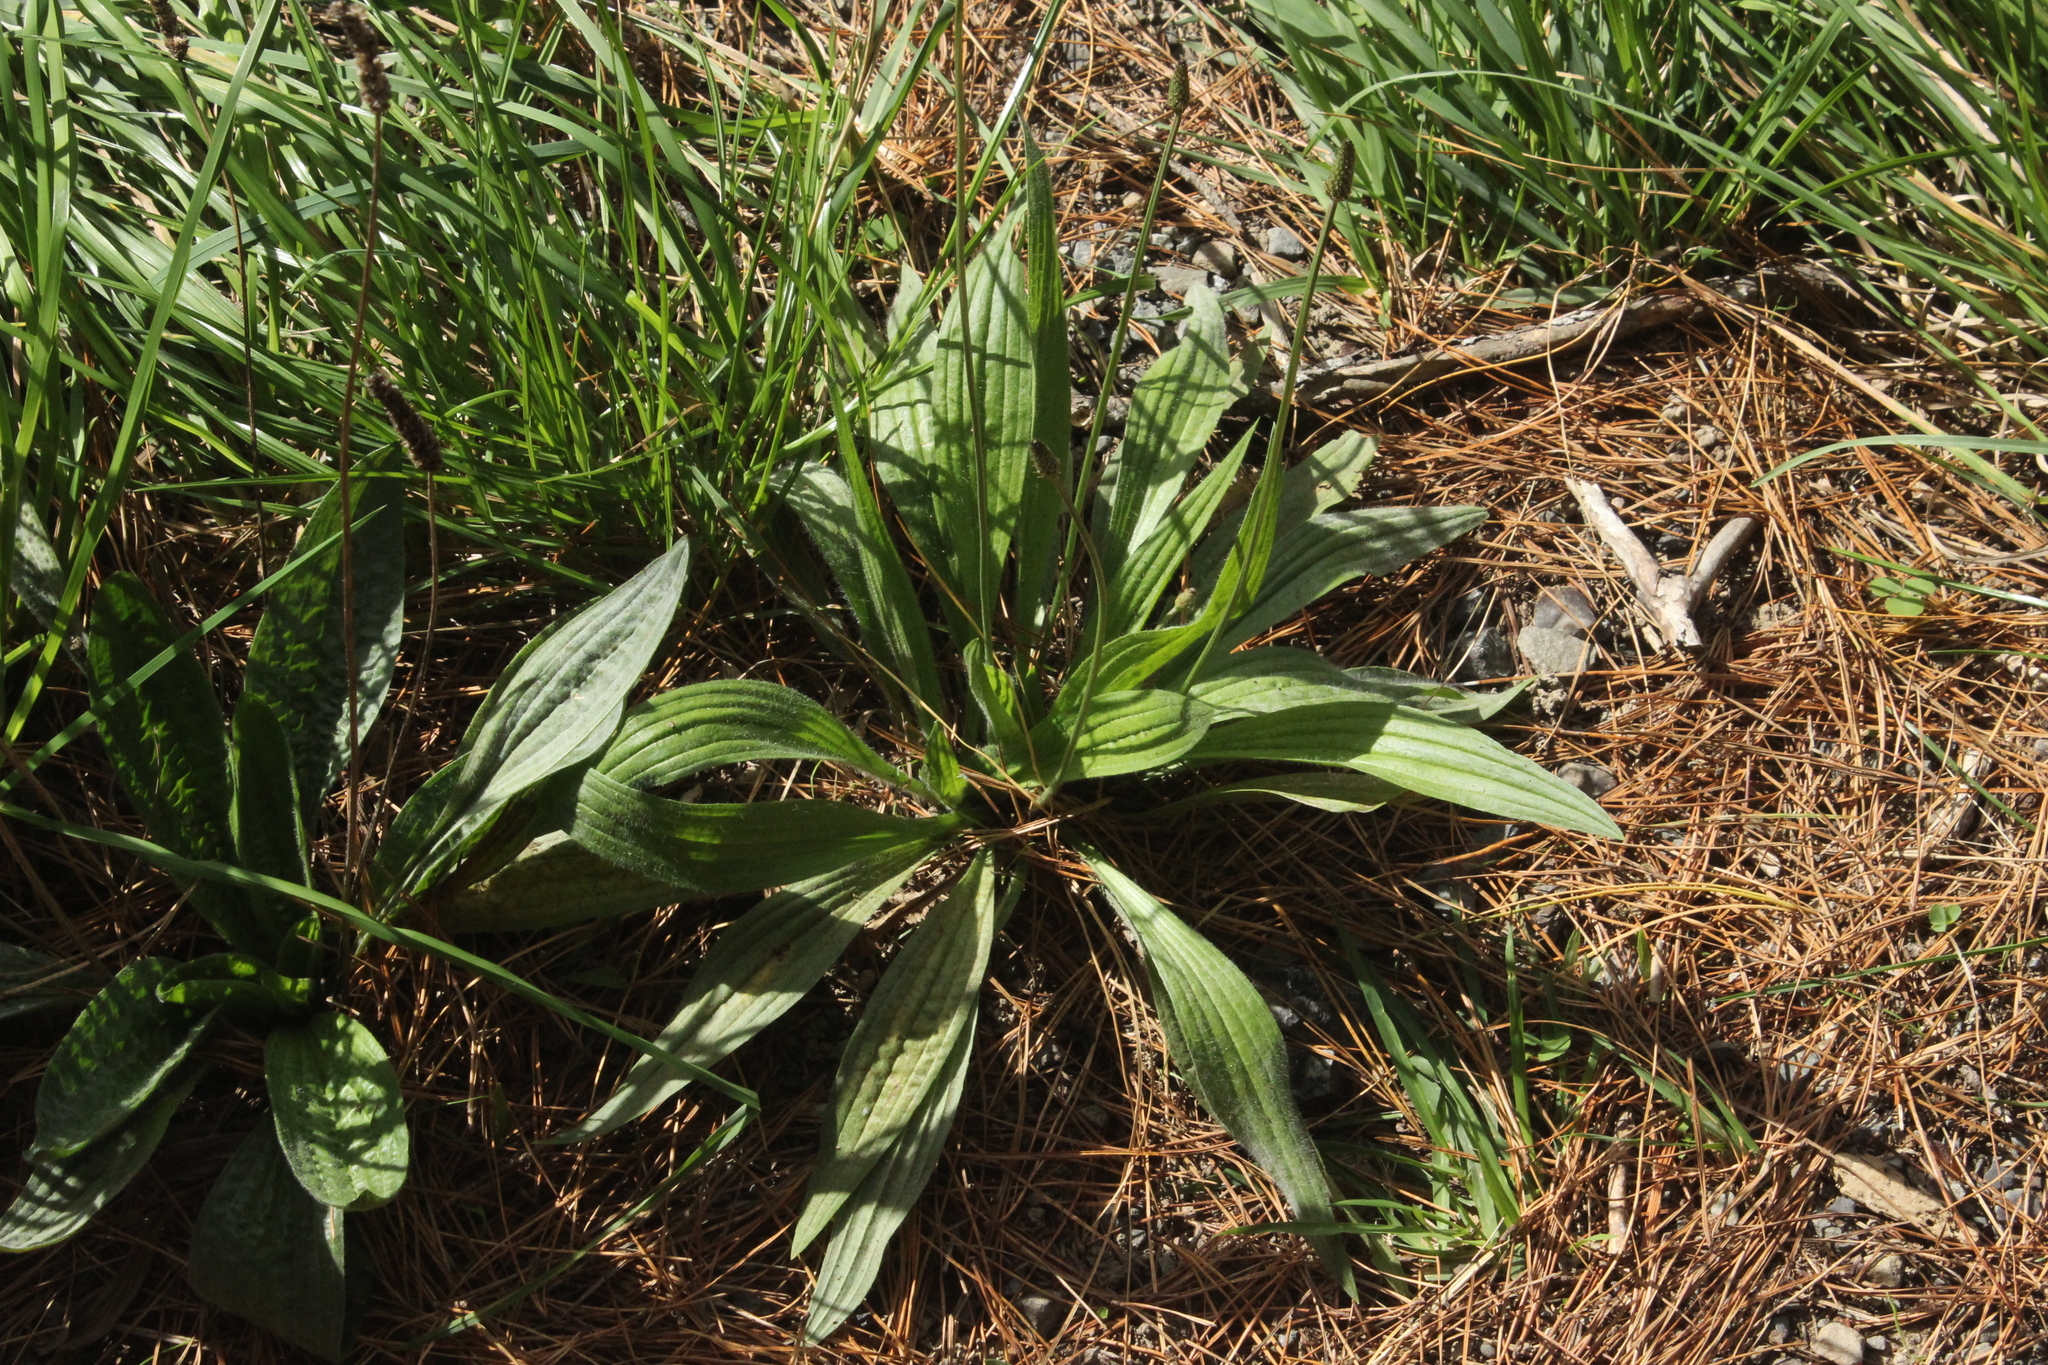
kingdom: Plantae
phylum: Tracheophyta
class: Magnoliopsida
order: Lamiales
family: Plantaginaceae
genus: Plantago
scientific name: Plantago lanceolata
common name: Ribwort plantain
